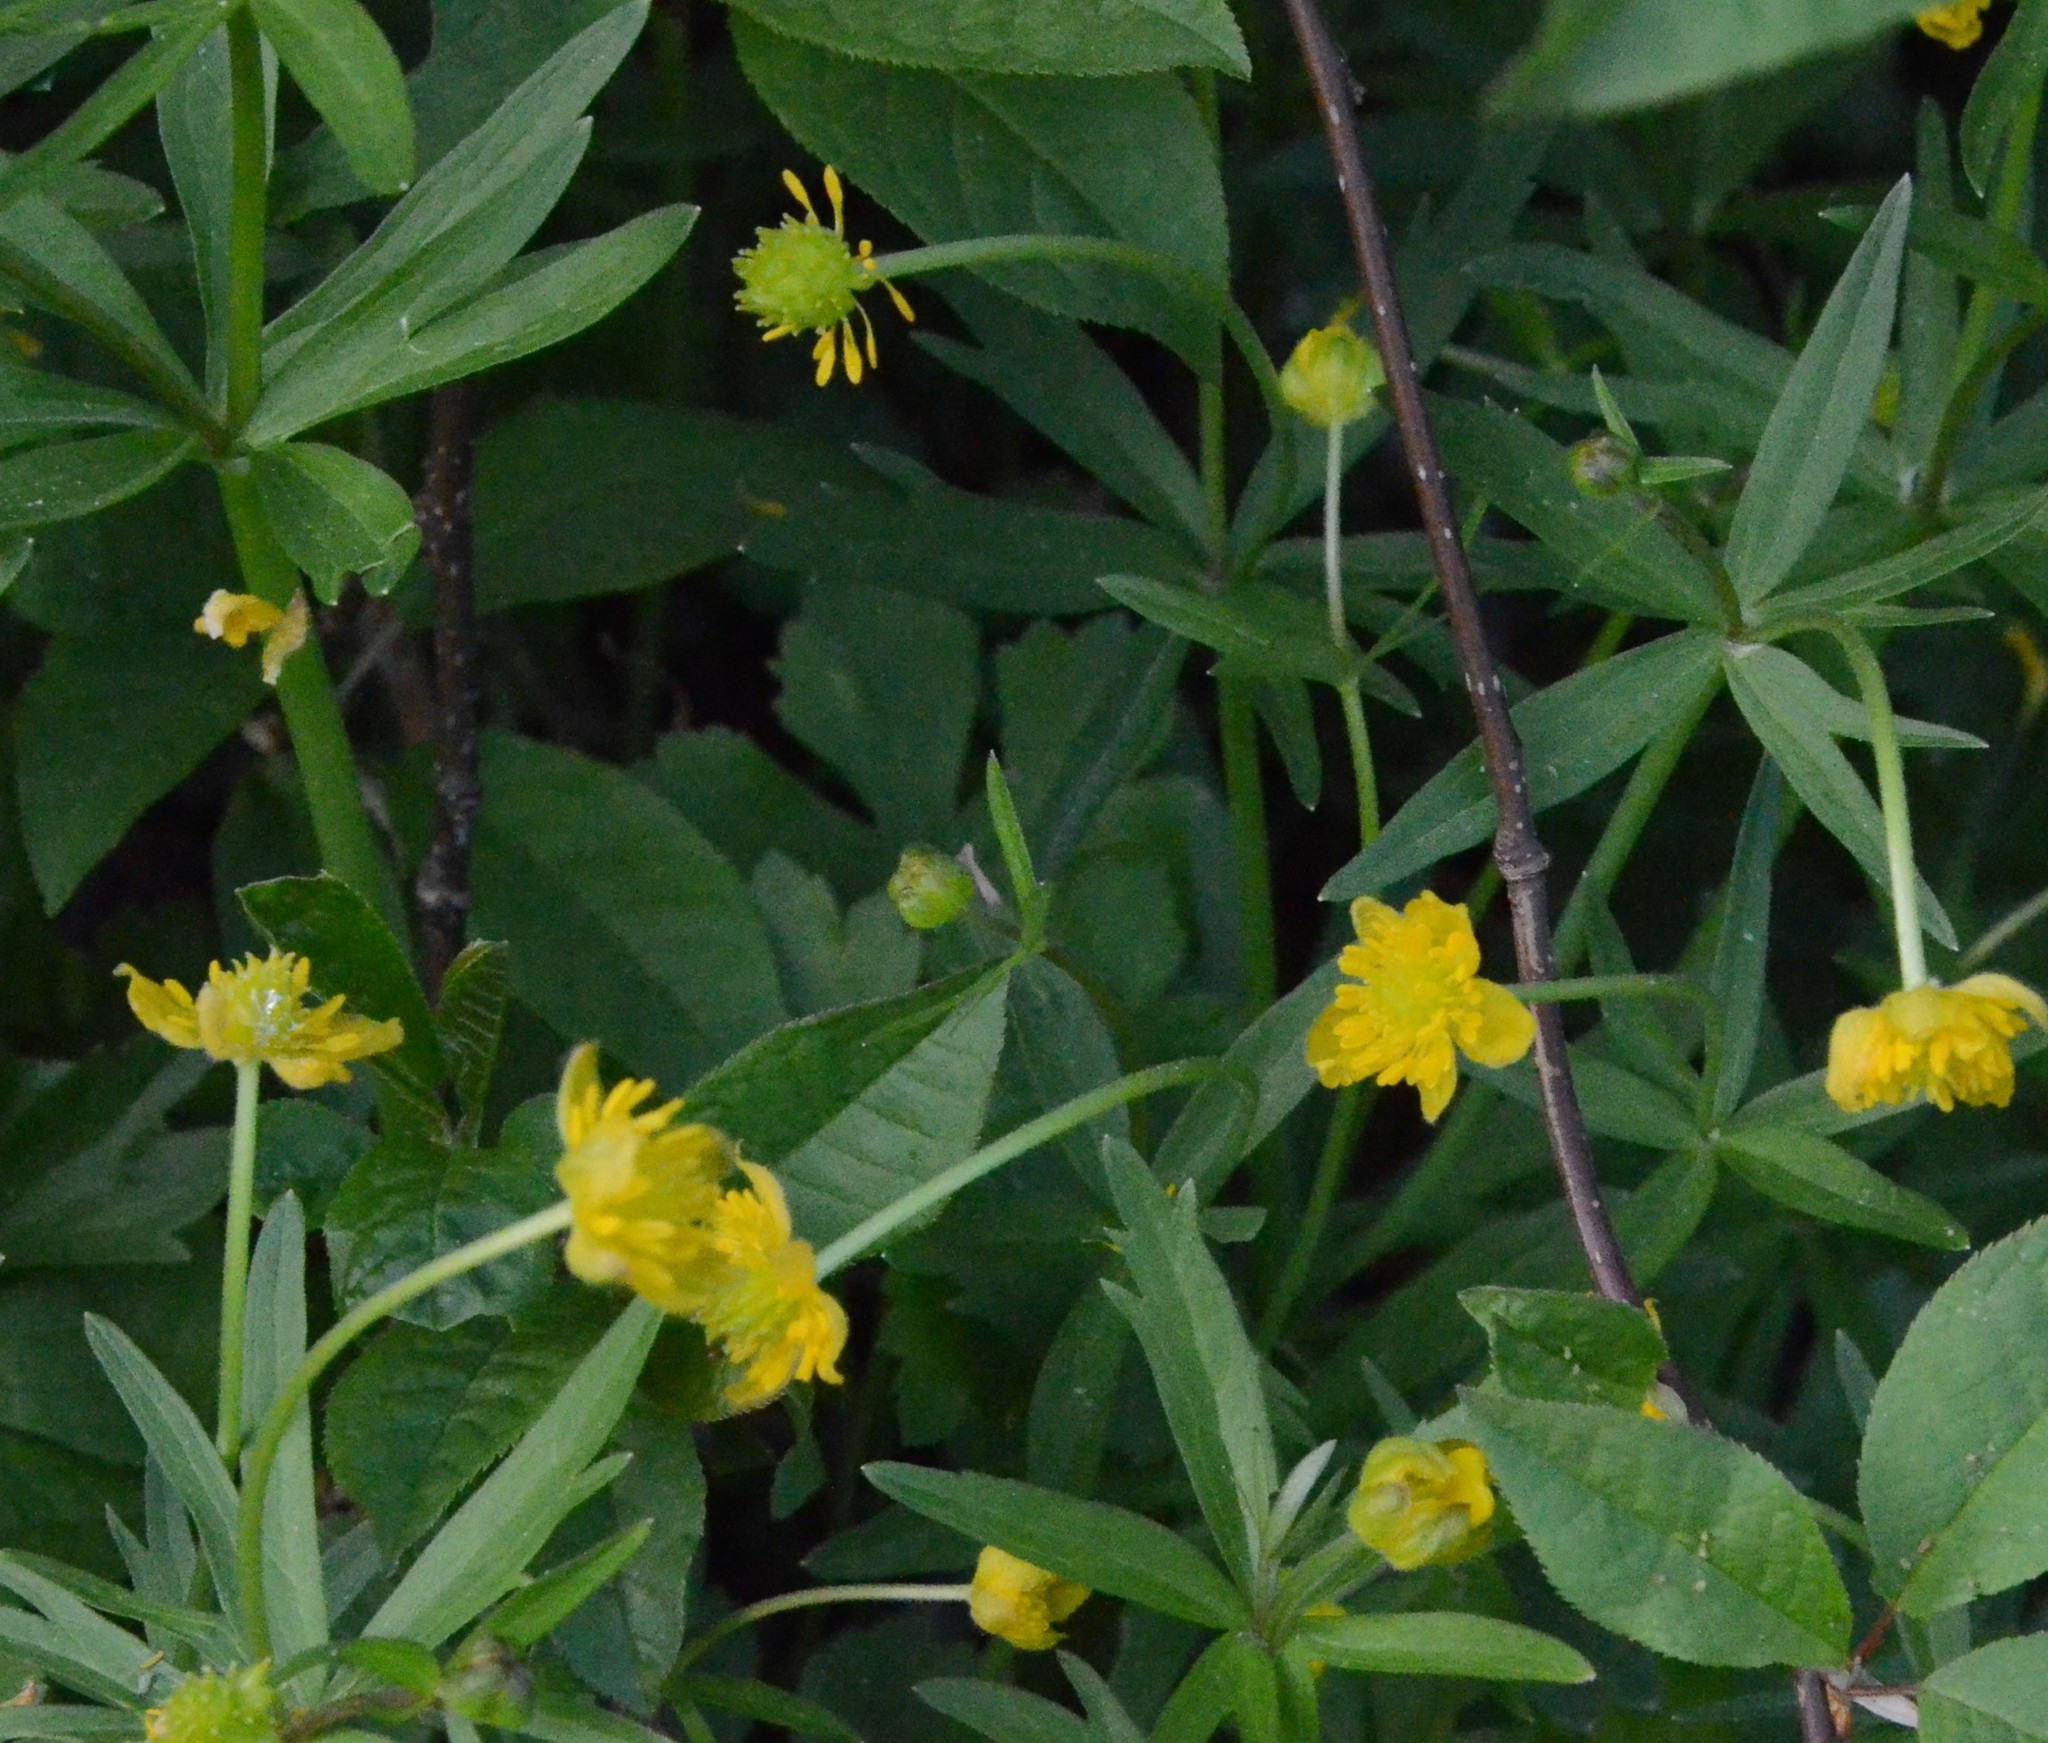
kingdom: Plantae
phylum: Tracheophyta
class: Magnoliopsida
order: Ranunculales
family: Ranunculaceae
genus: Ranunculus
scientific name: Ranunculus auricomus
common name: Goldilocks buttercup
